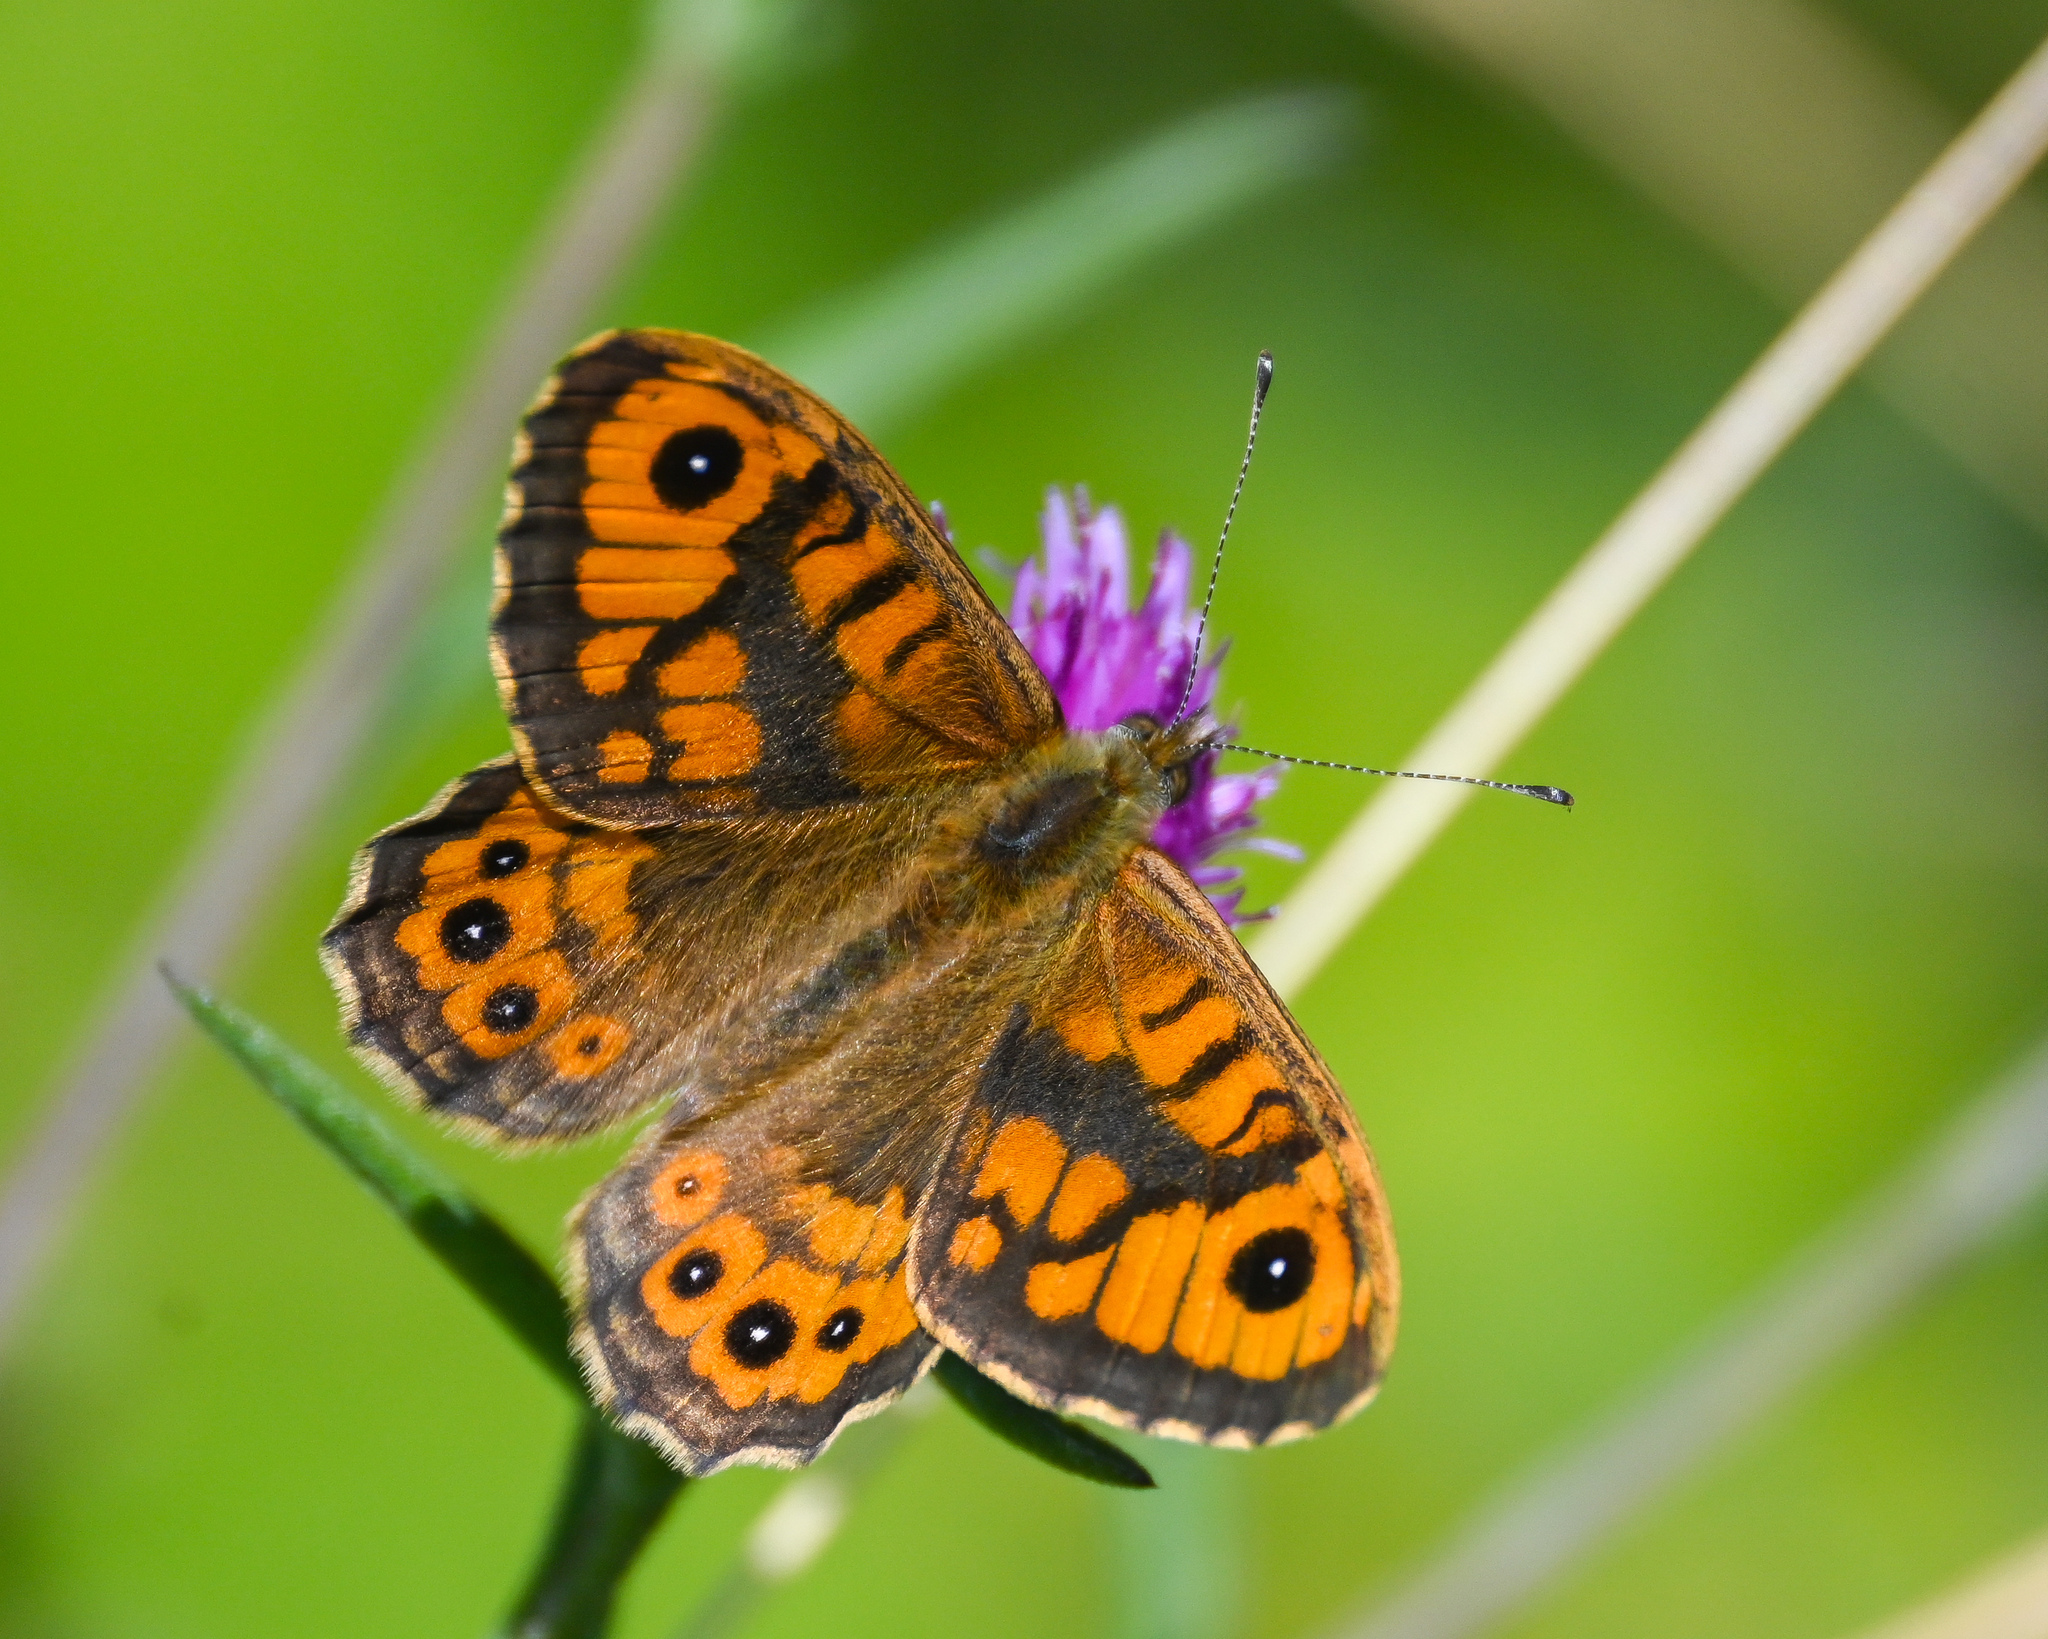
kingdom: Animalia
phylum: Arthropoda
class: Insecta
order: Lepidoptera
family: Nymphalidae
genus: Pararge
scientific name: Pararge Lasiommata megera
